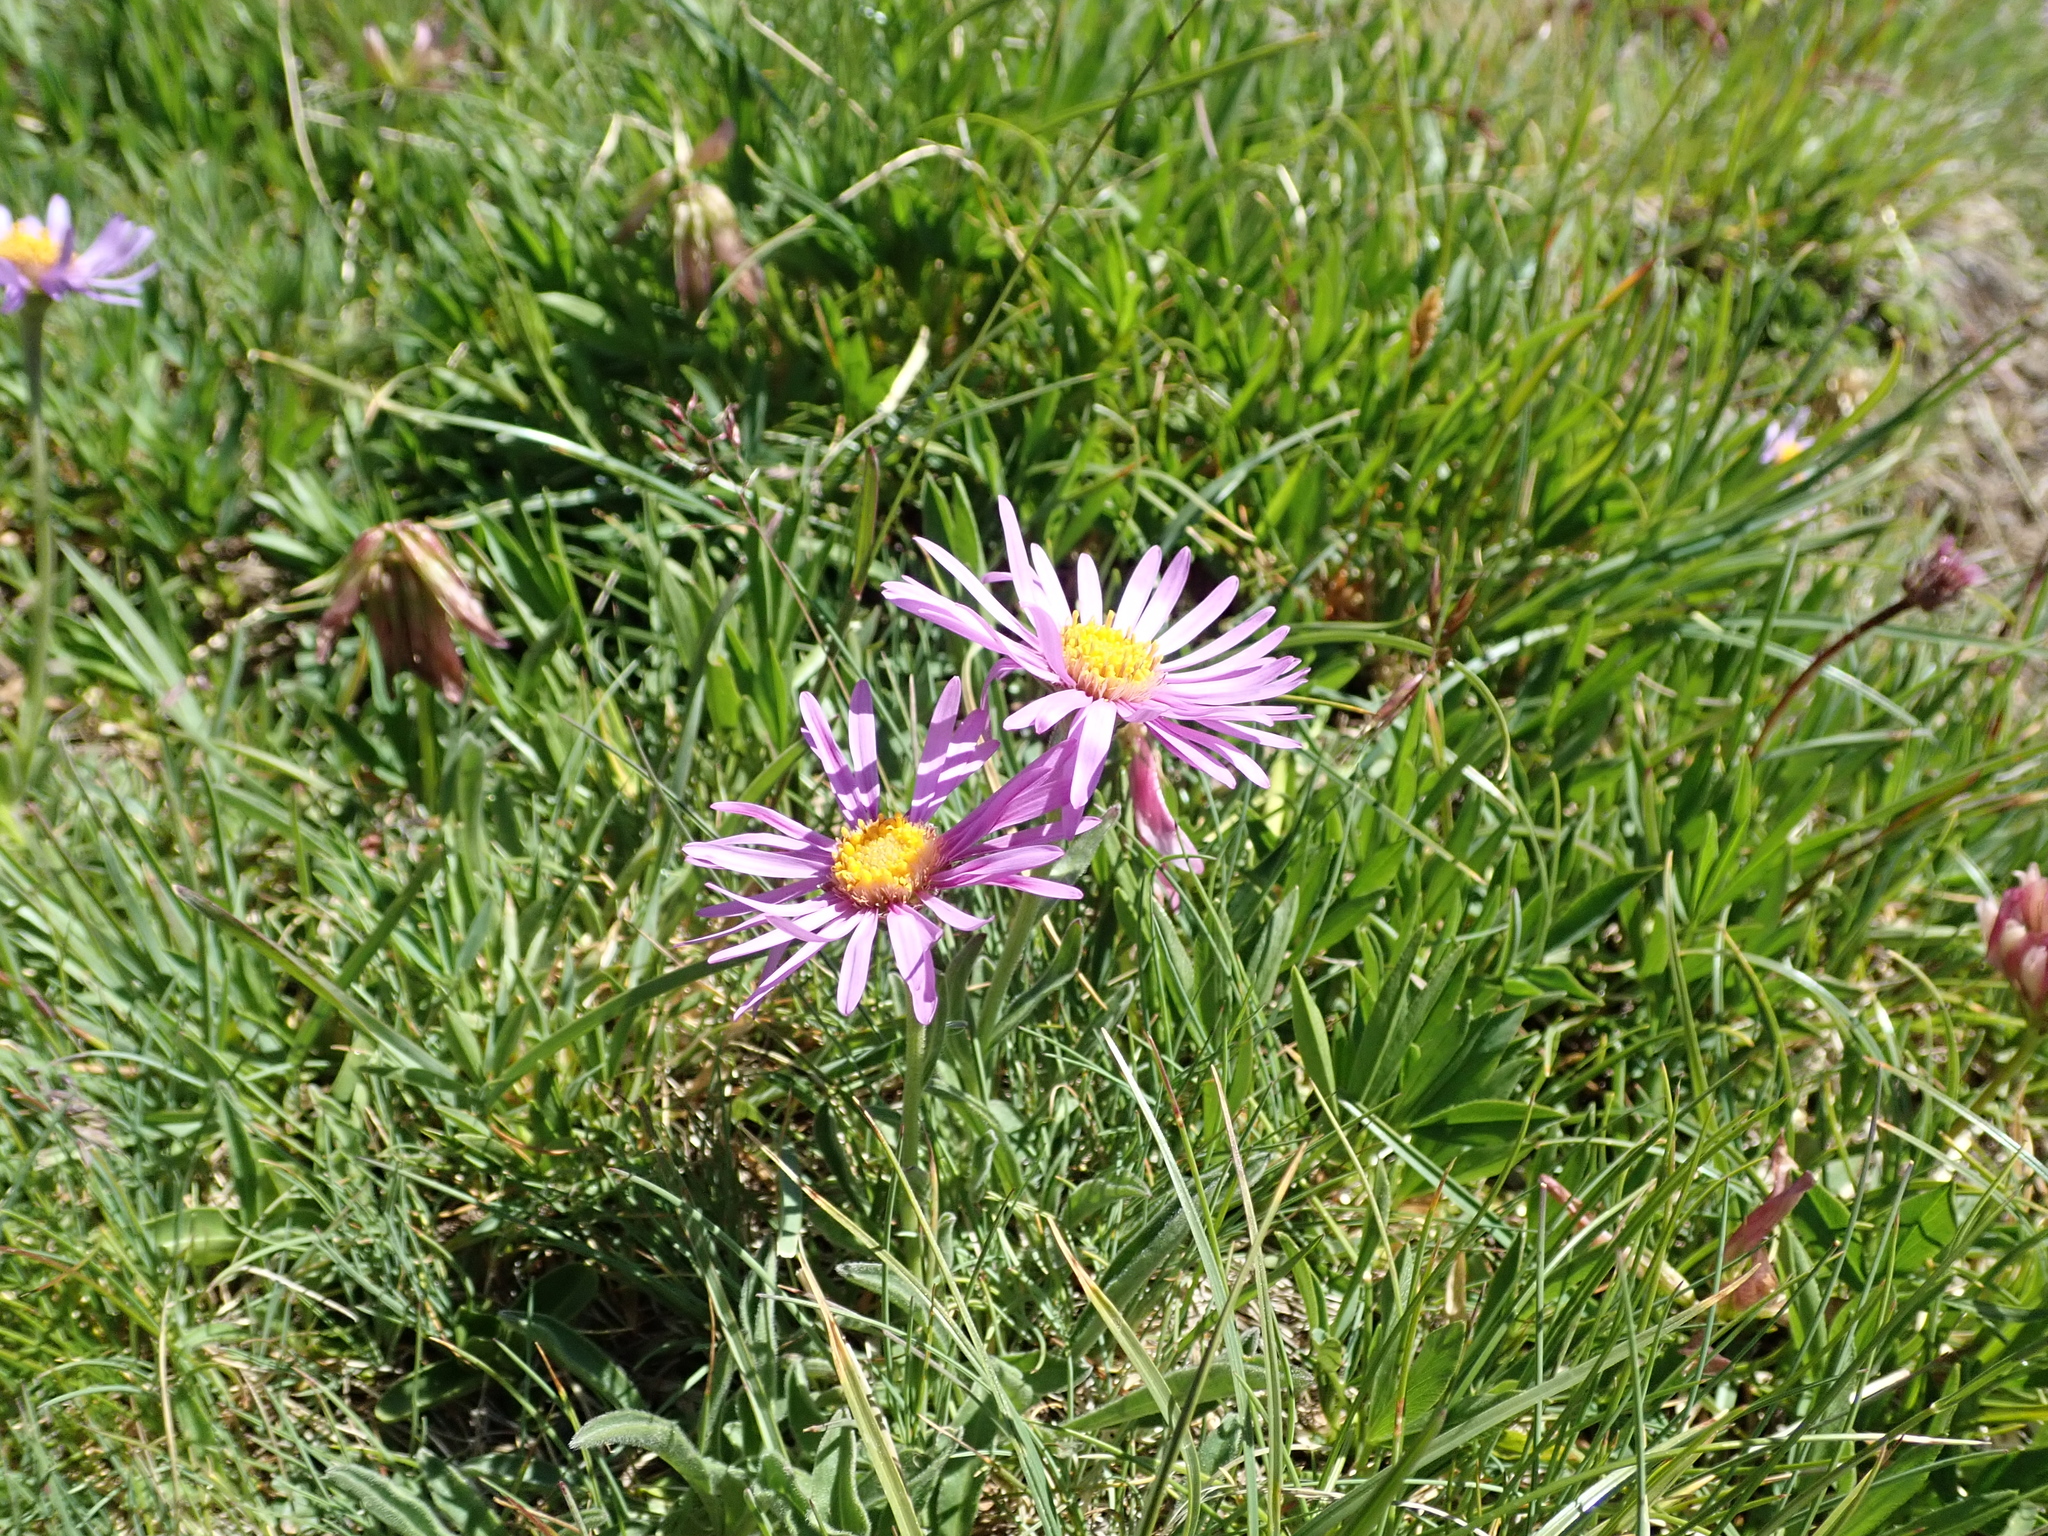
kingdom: Plantae
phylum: Tracheophyta
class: Magnoliopsida
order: Asterales
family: Asteraceae
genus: Aster
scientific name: Aster alpinus
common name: Alpine aster
